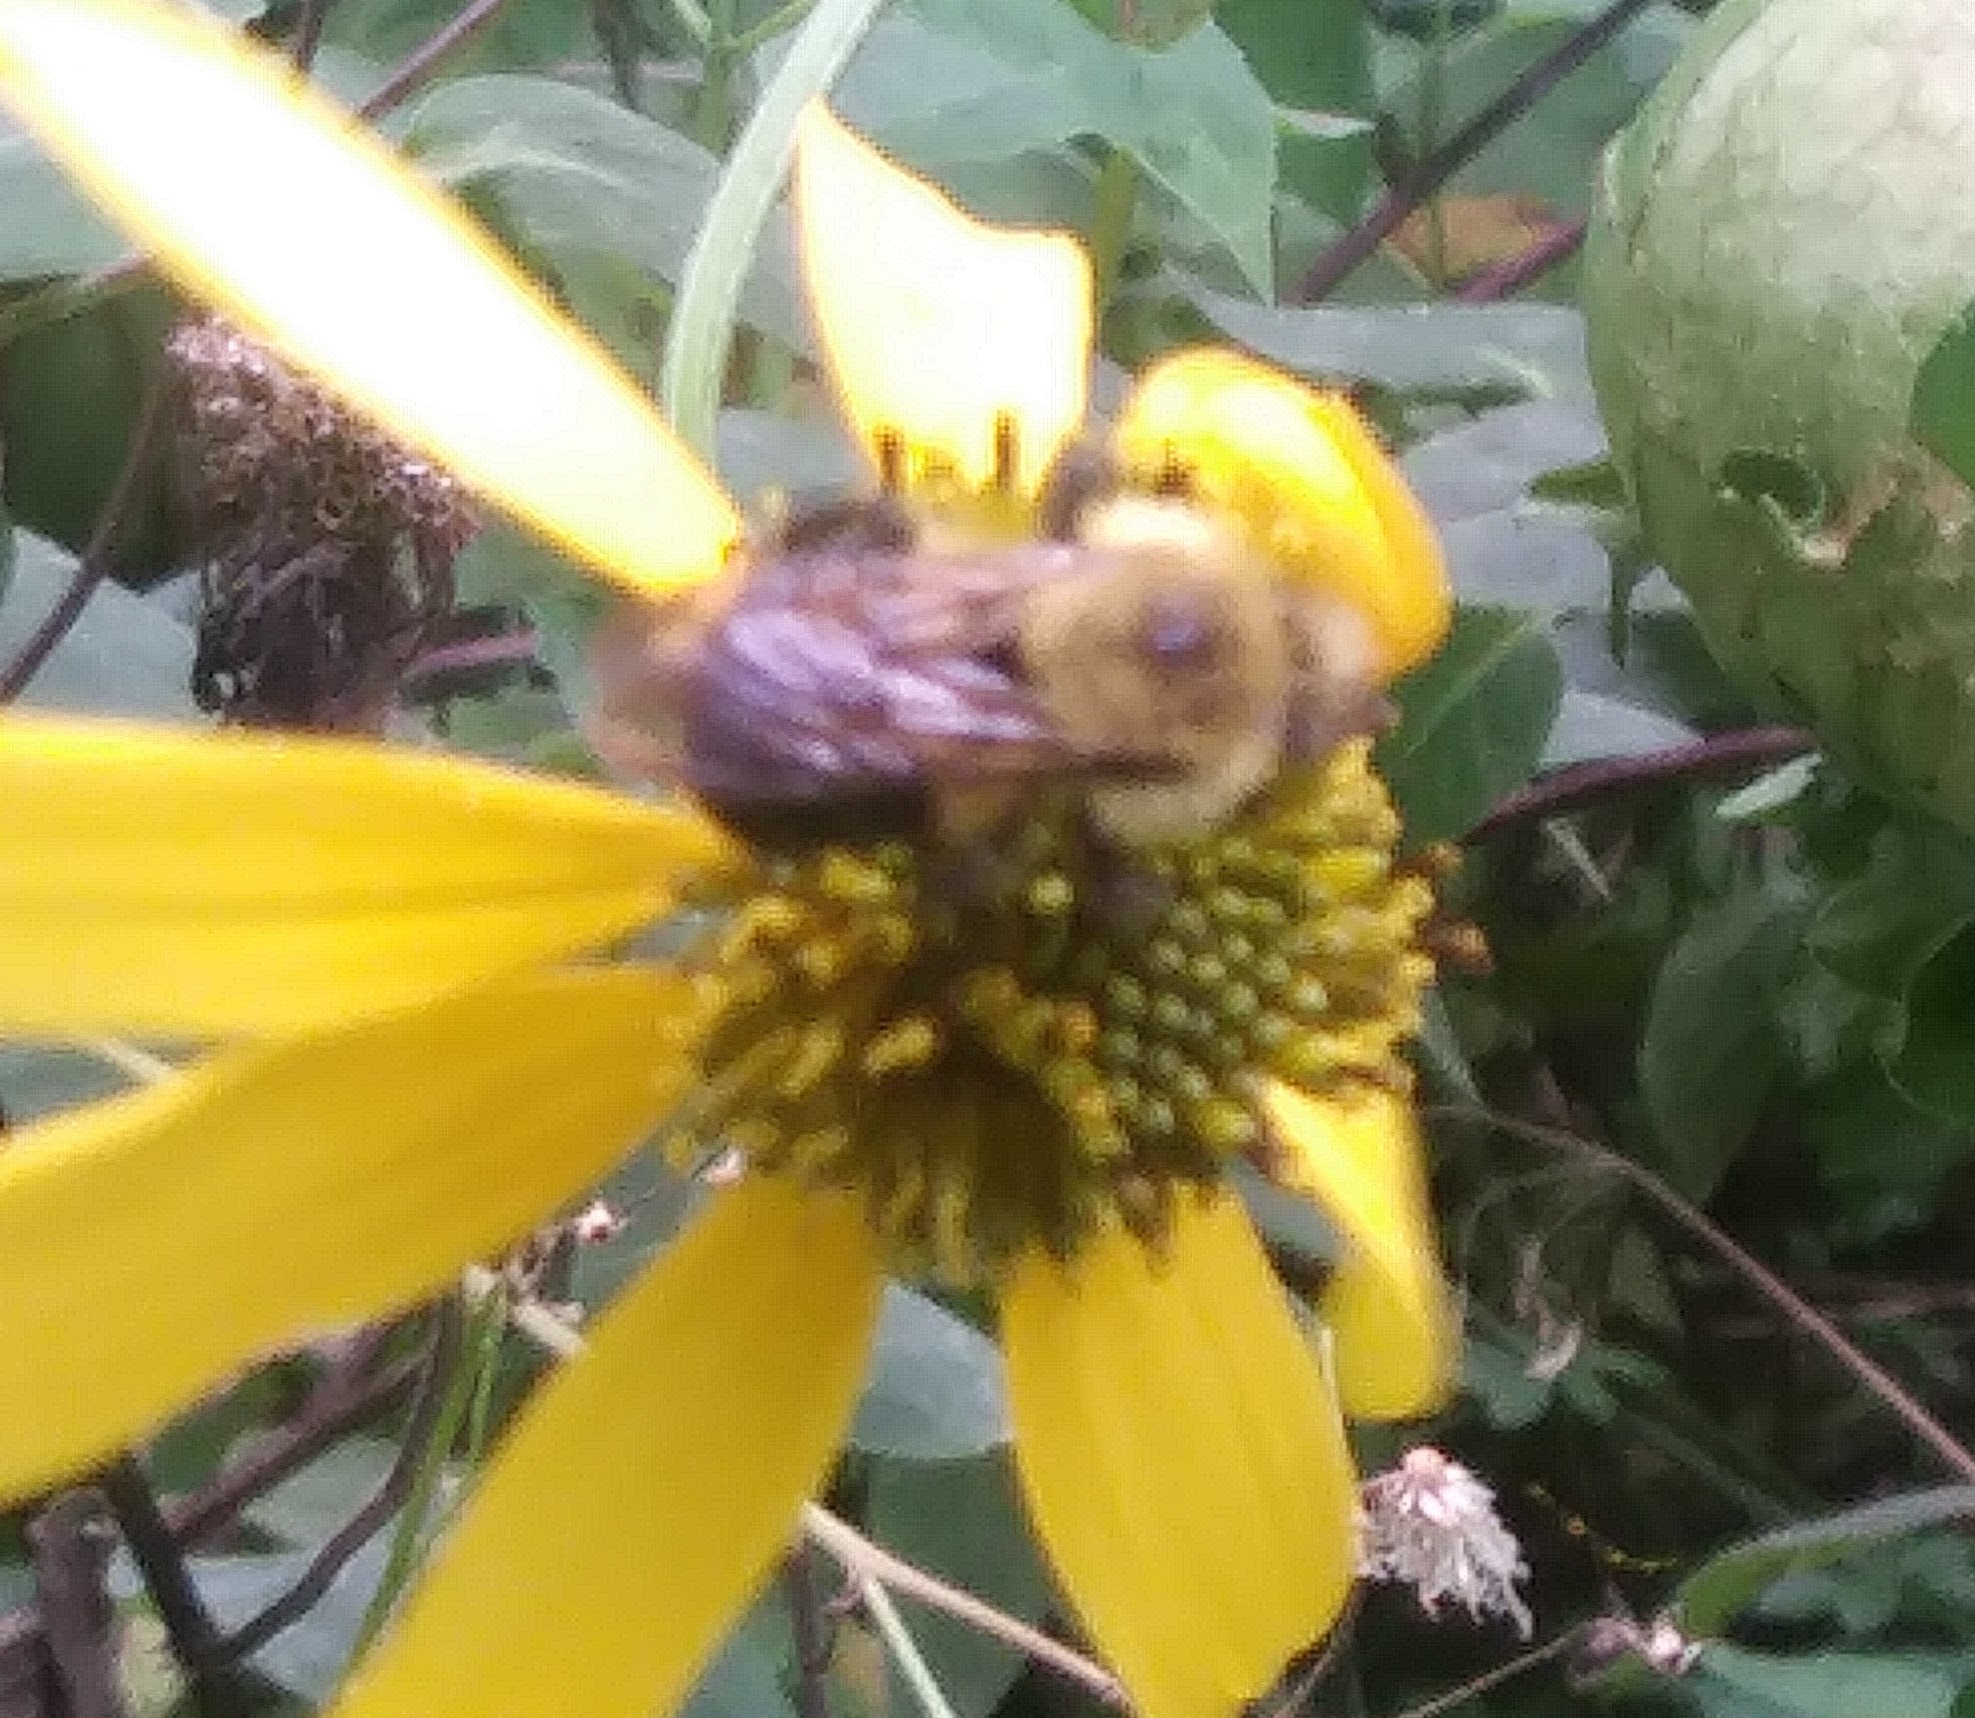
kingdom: Animalia
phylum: Arthropoda
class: Insecta
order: Hymenoptera
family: Apidae
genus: Bombus
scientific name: Bombus bimaculatus
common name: Two-spotted bumble bee
